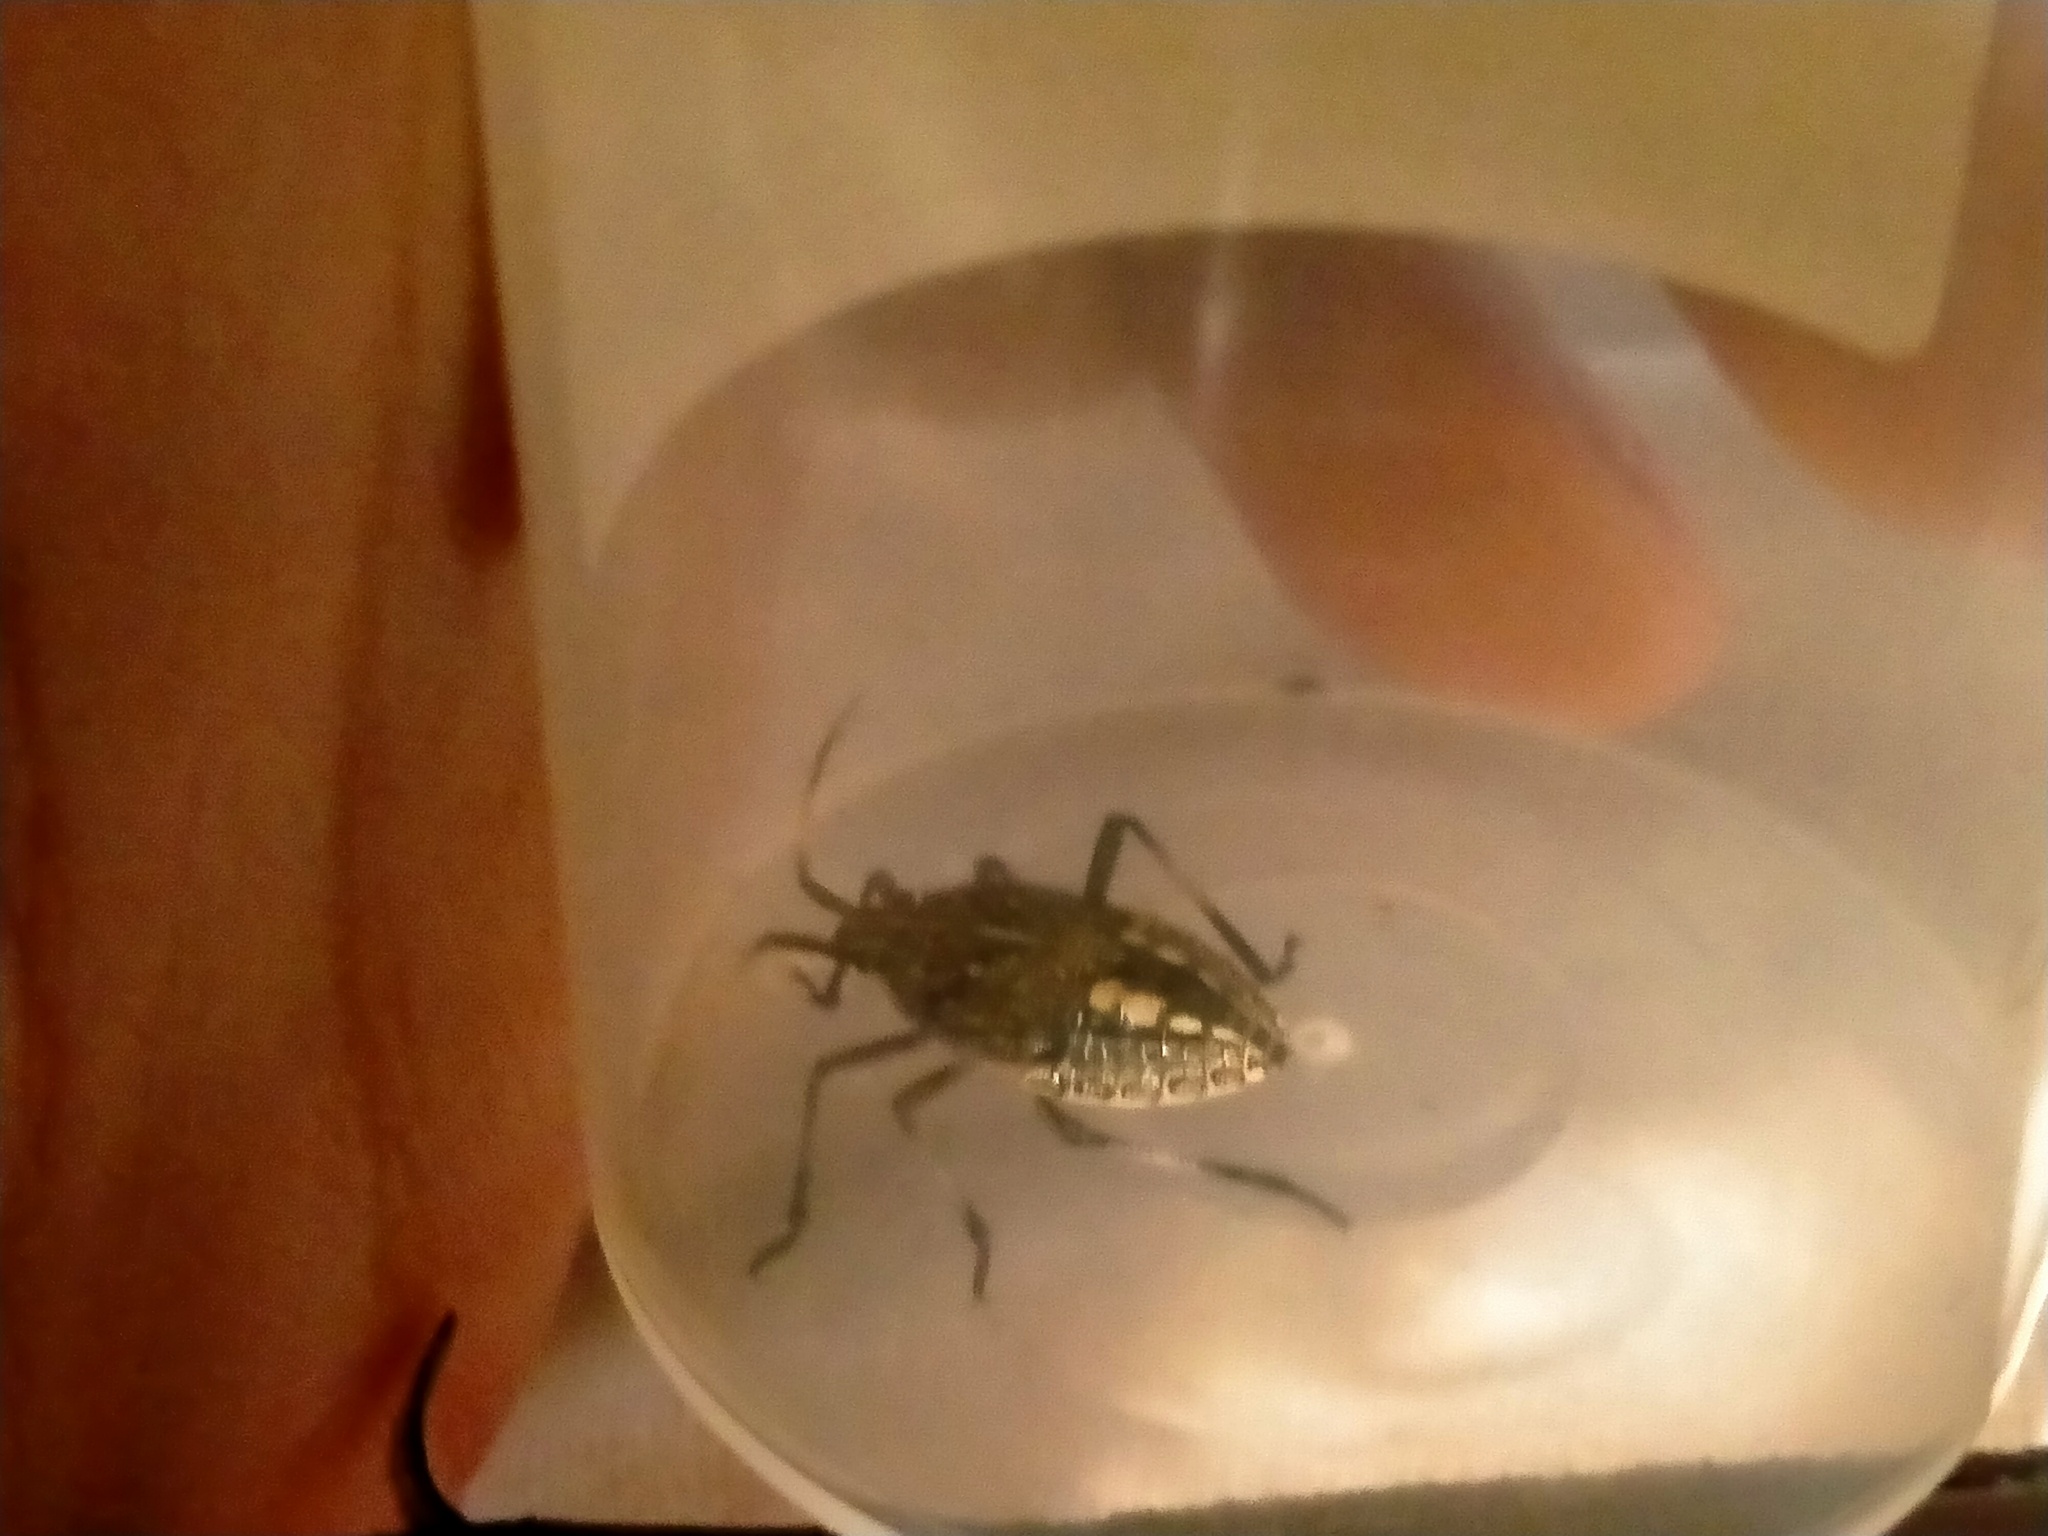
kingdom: Animalia
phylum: Arthropoda
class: Insecta
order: Hemiptera
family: Pentatomidae
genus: Poecilometis
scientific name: Poecilometis
